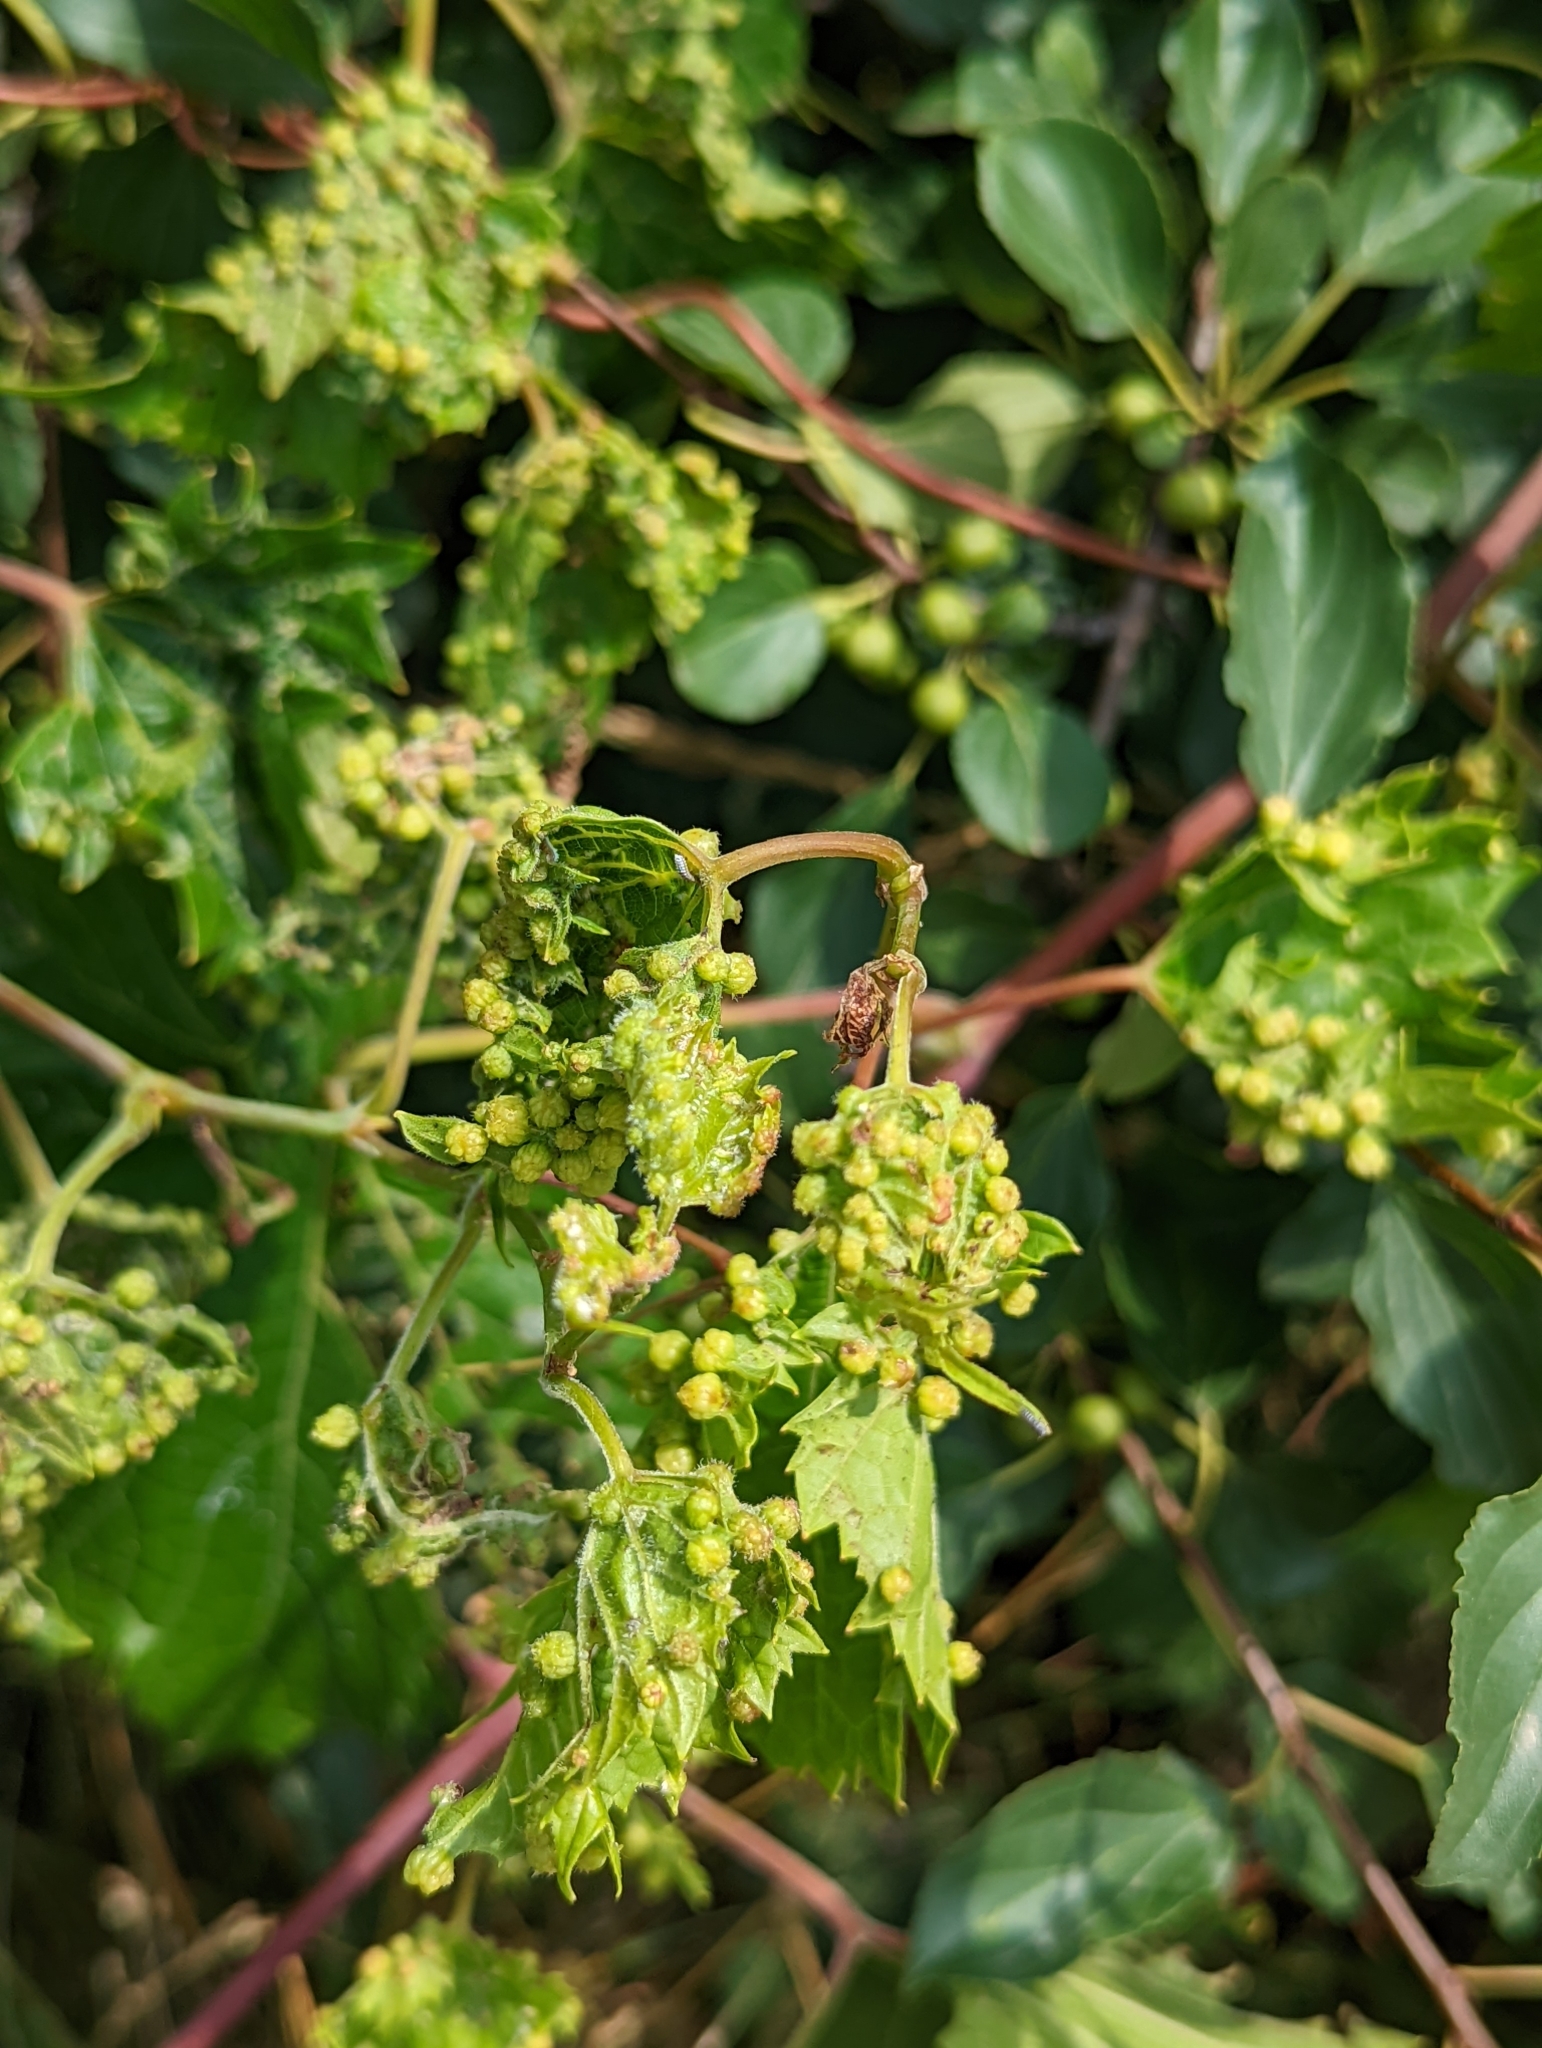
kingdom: Animalia
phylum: Arthropoda
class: Insecta
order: Hemiptera
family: Phylloxeridae
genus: Daktulosphaira
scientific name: Daktulosphaira vitifoliae
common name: Grape phylloxera
